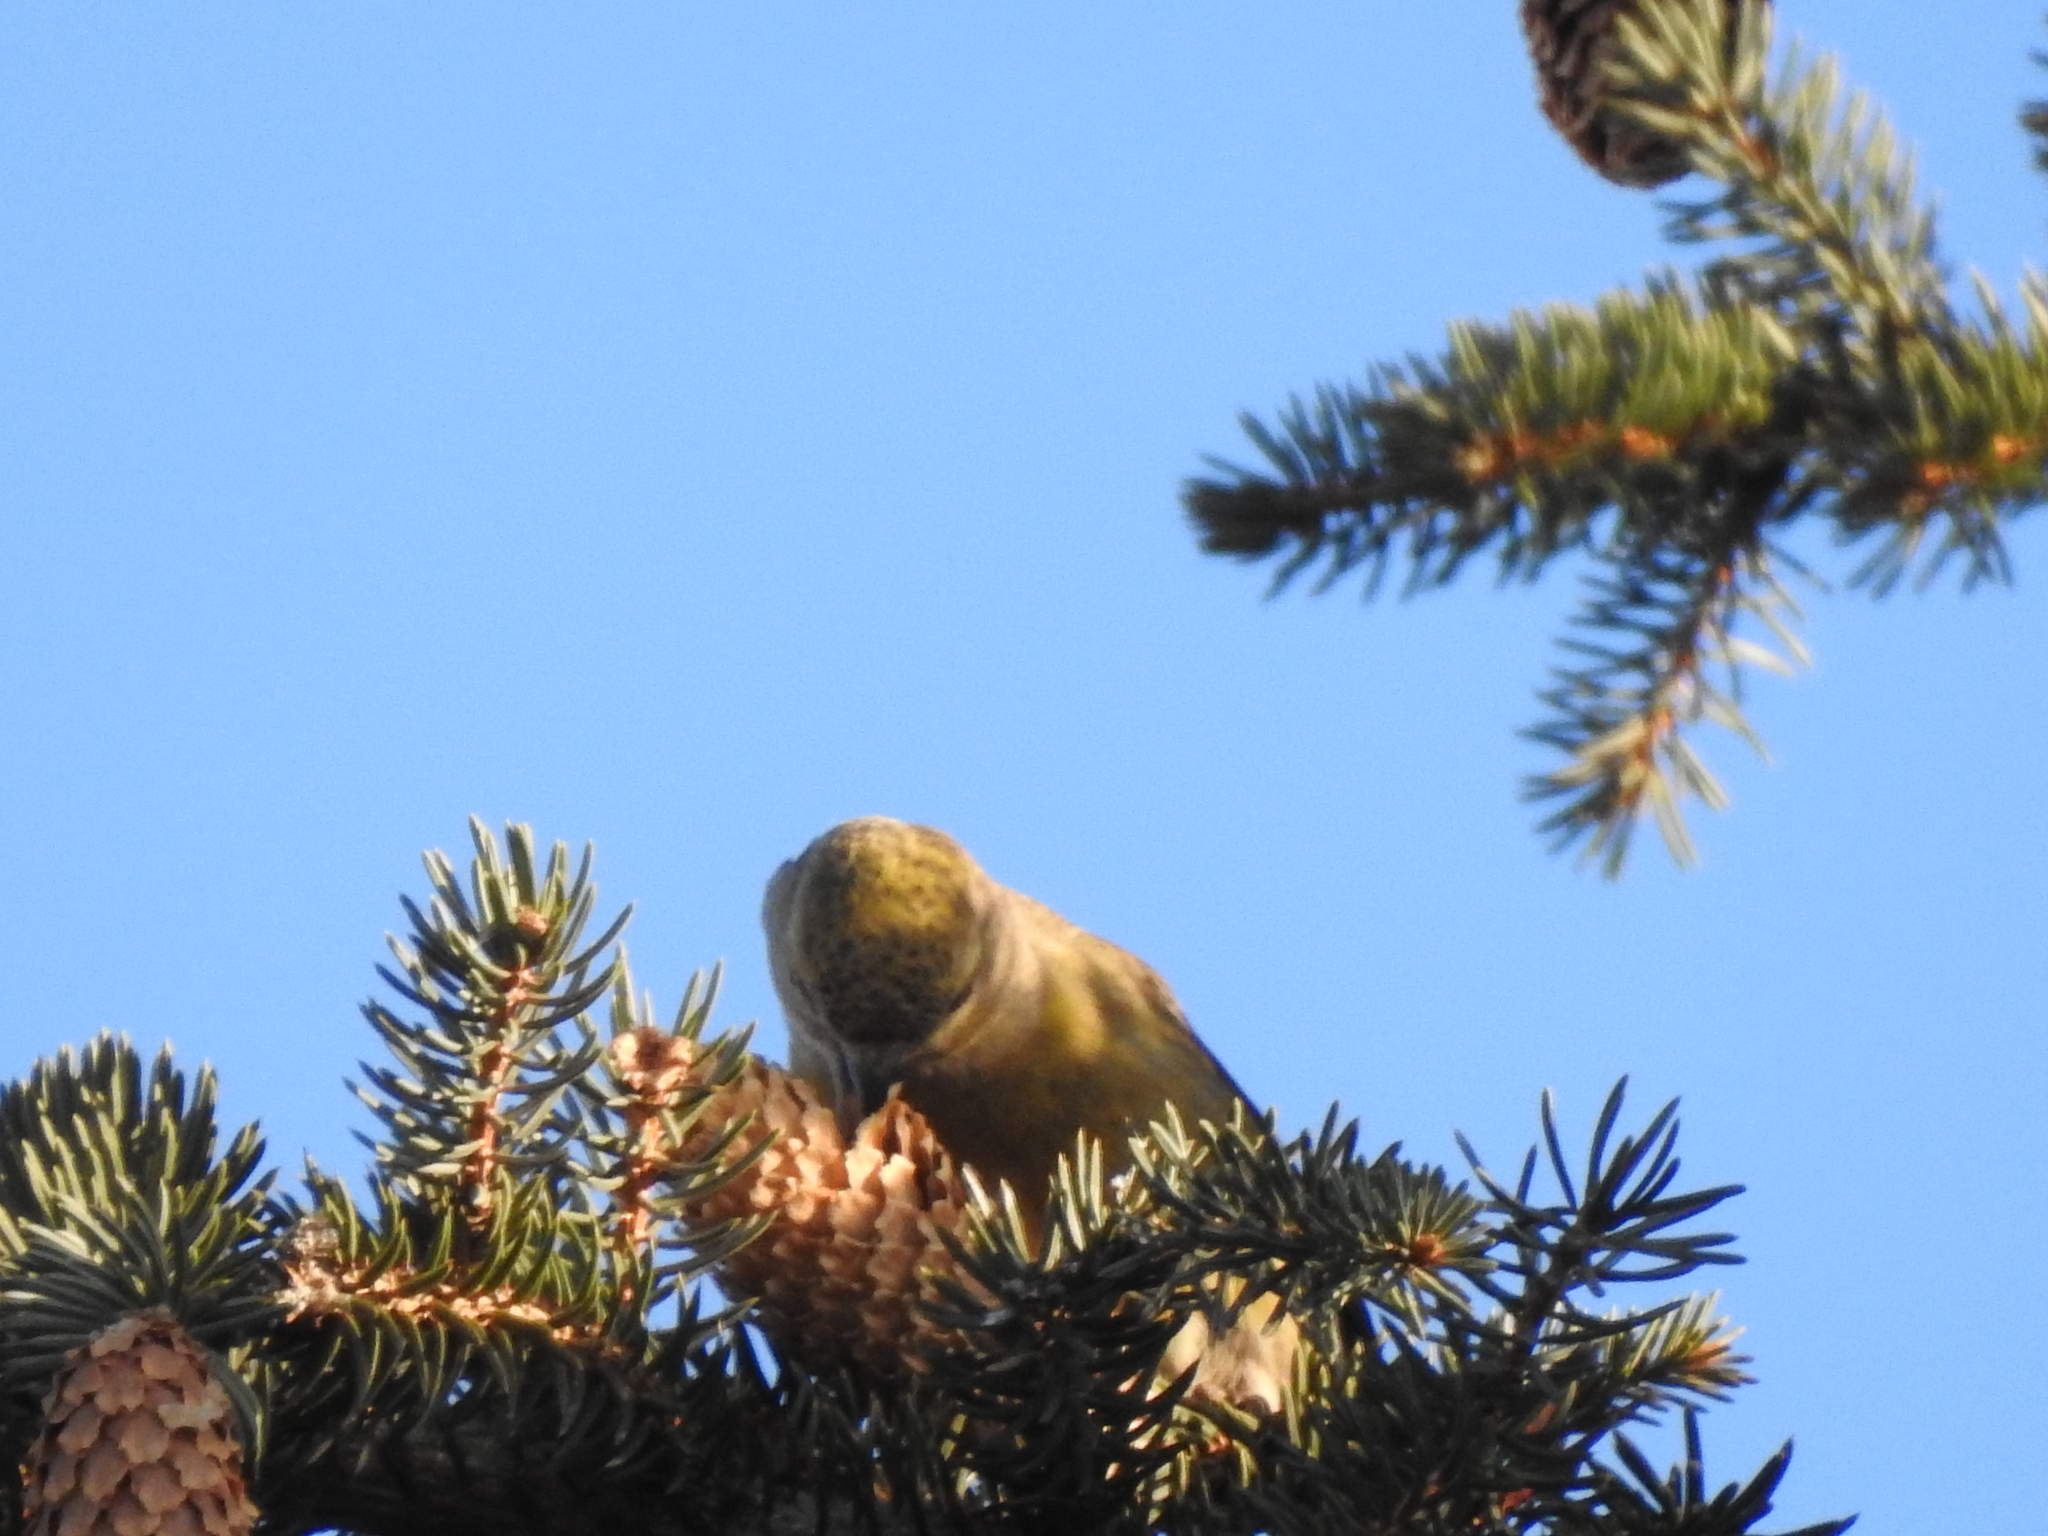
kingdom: Animalia
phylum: Chordata
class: Aves
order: Passeriformes
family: Fringillidae
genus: Loxia
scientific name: Loxia curvirostra
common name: Red crossbill
